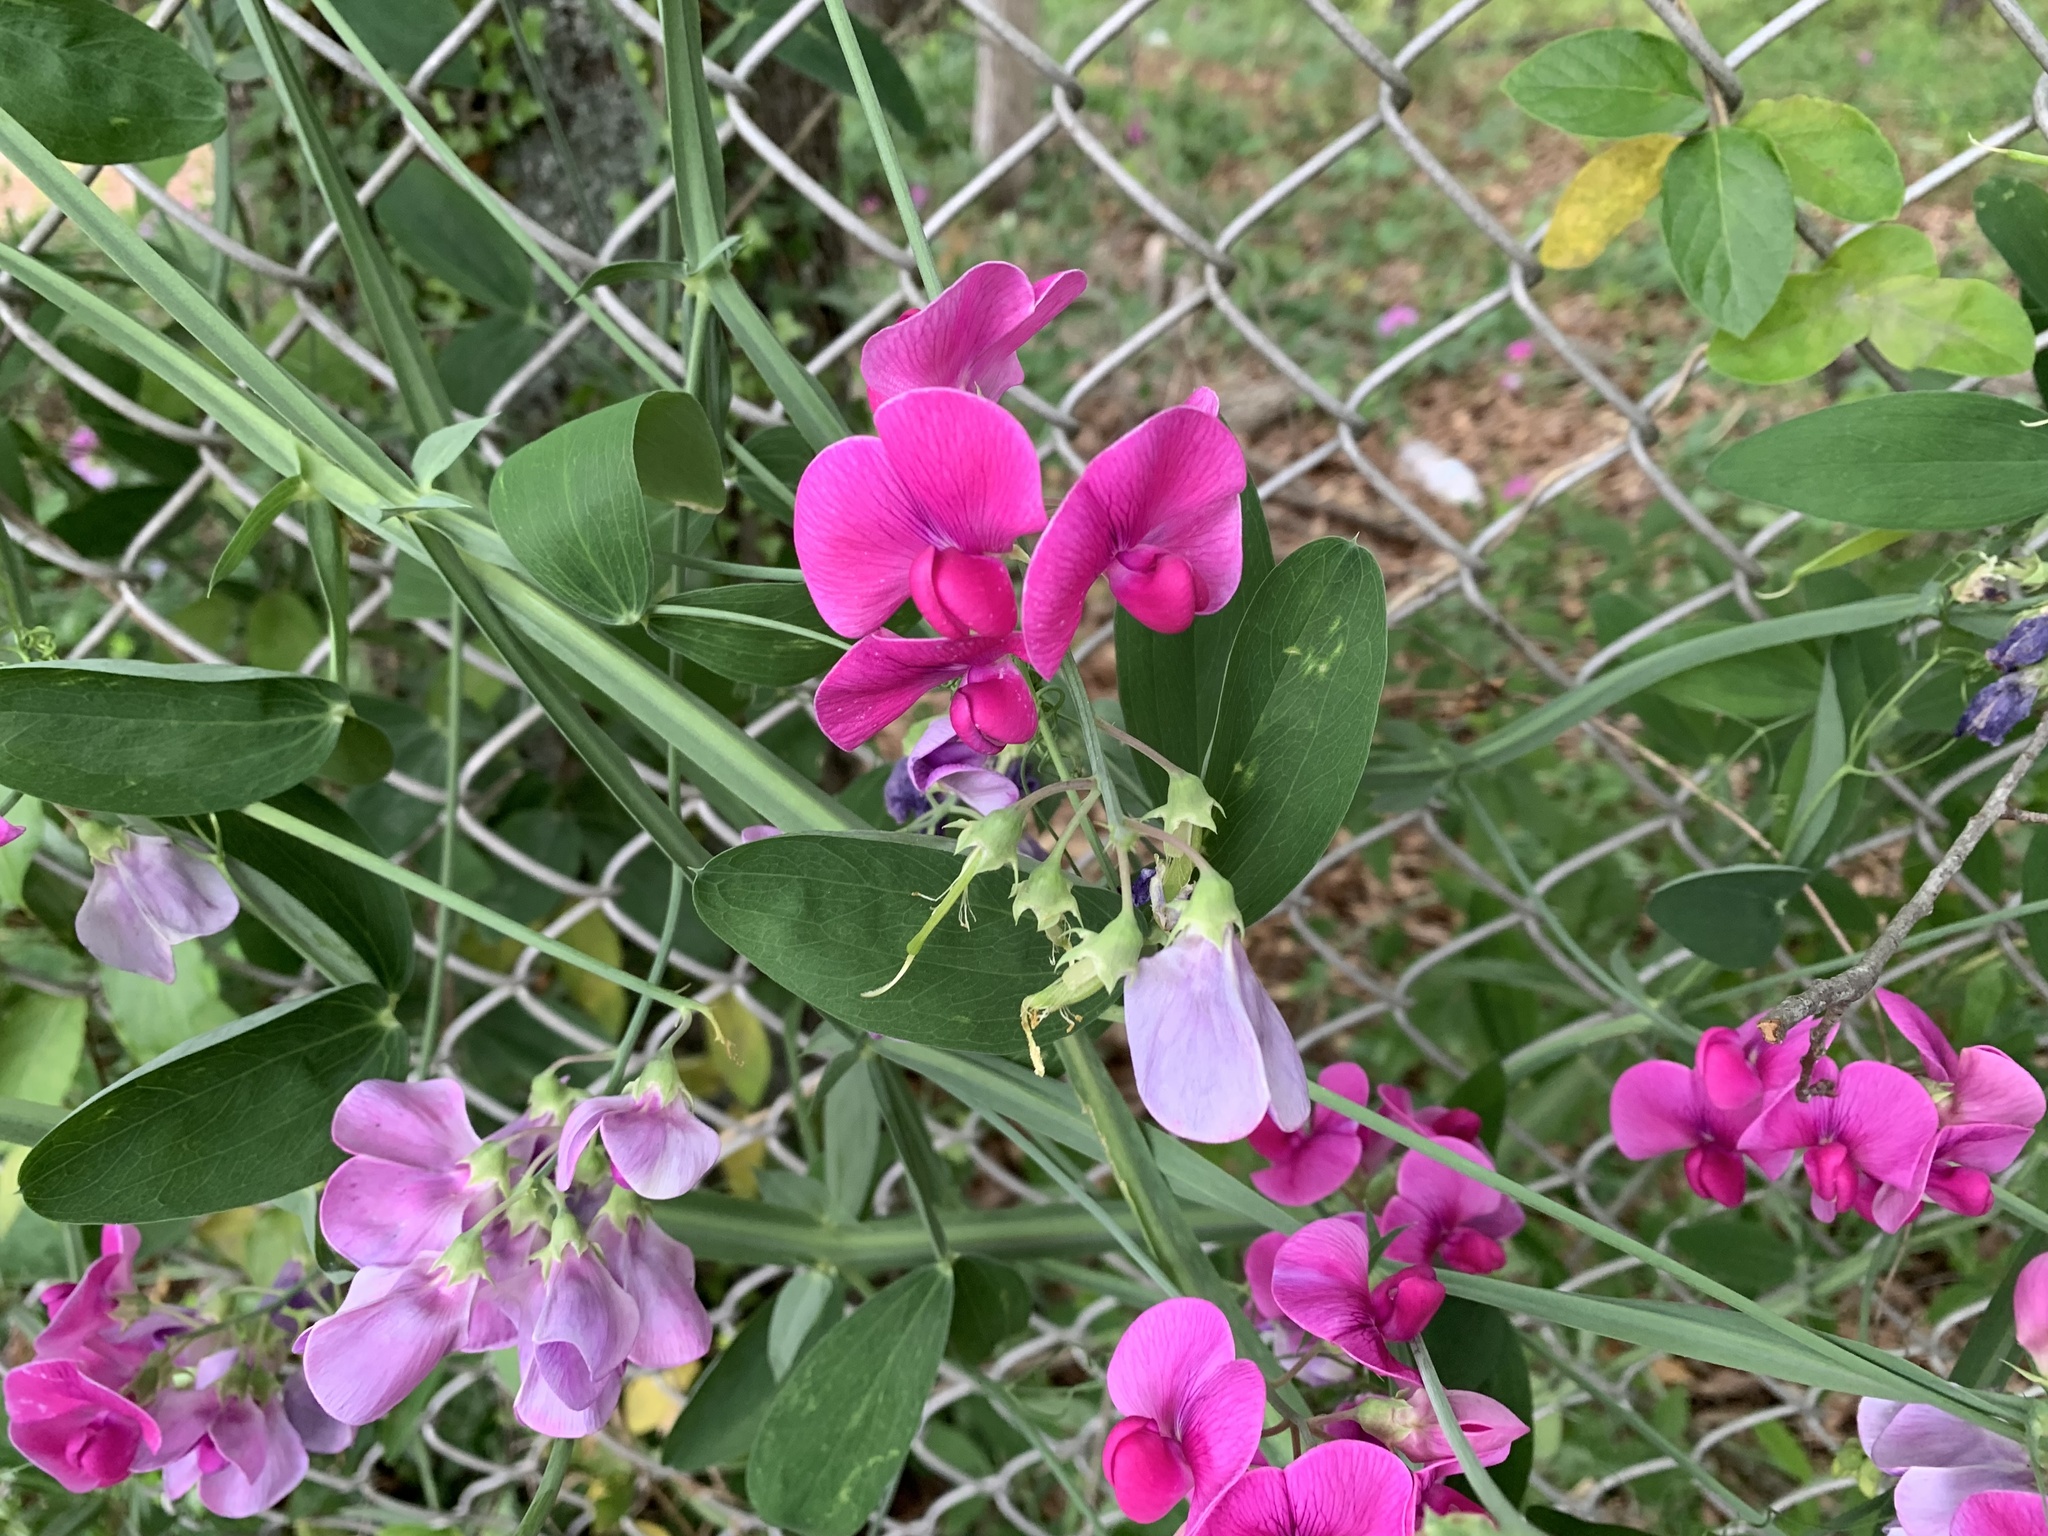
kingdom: Plantae
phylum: Tracheophyta
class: Magnoliopsida
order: Fabales
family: Fabaceae
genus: Lathyrus
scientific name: Lathyrus latifolius
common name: Perennial pea
